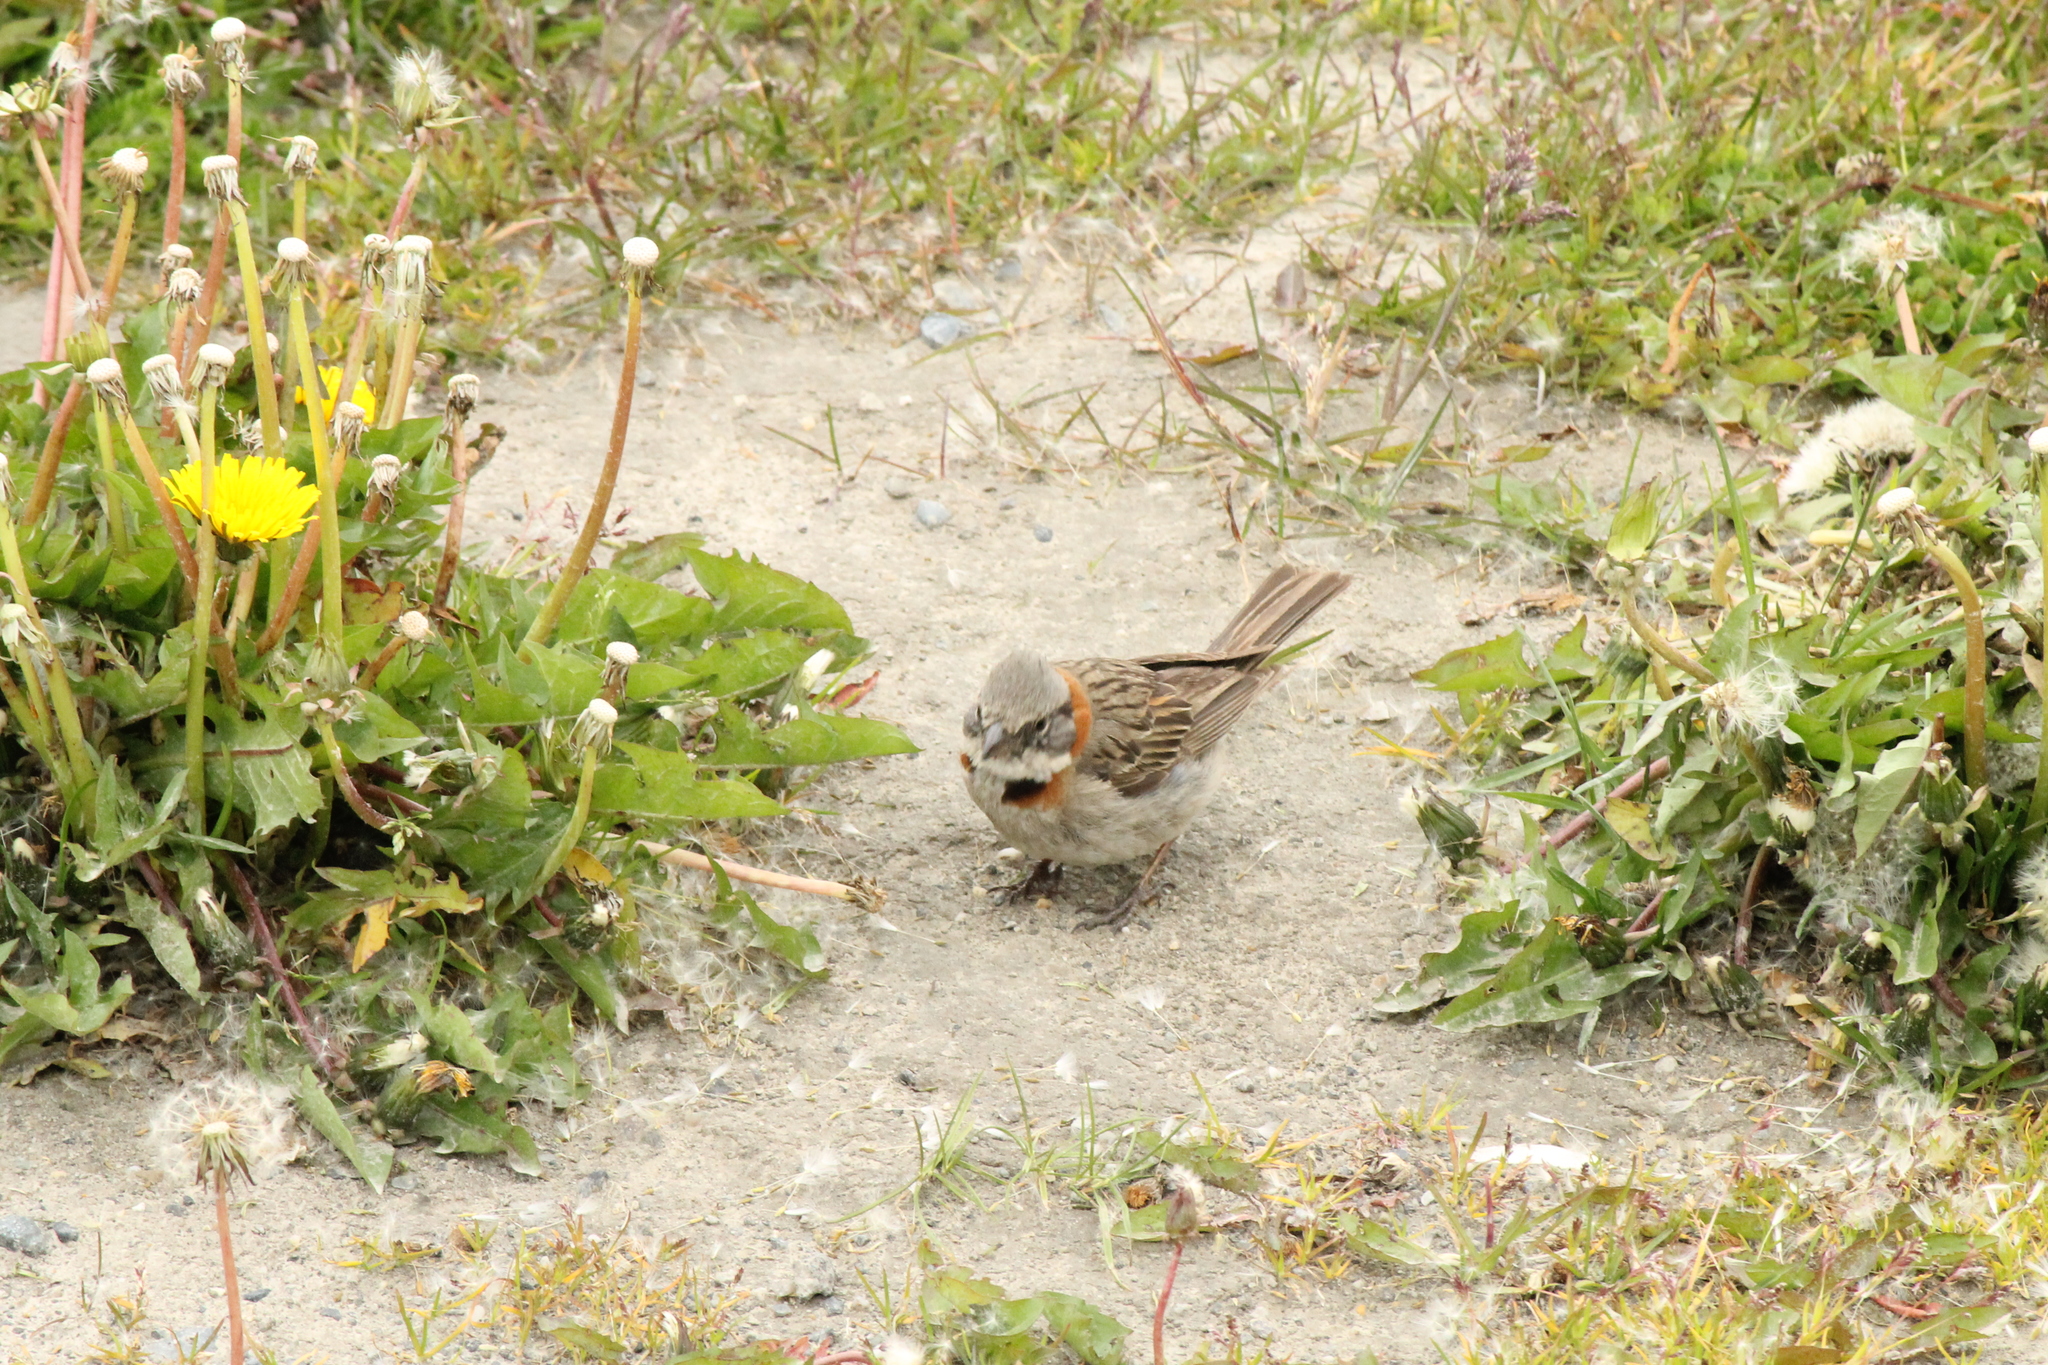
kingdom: Animalia
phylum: Chordata
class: Aves
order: Passeriformes
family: Passerellidae
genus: Zonotrichia
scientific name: Zonotrichia capensis
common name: Rufous-collared sparrow
